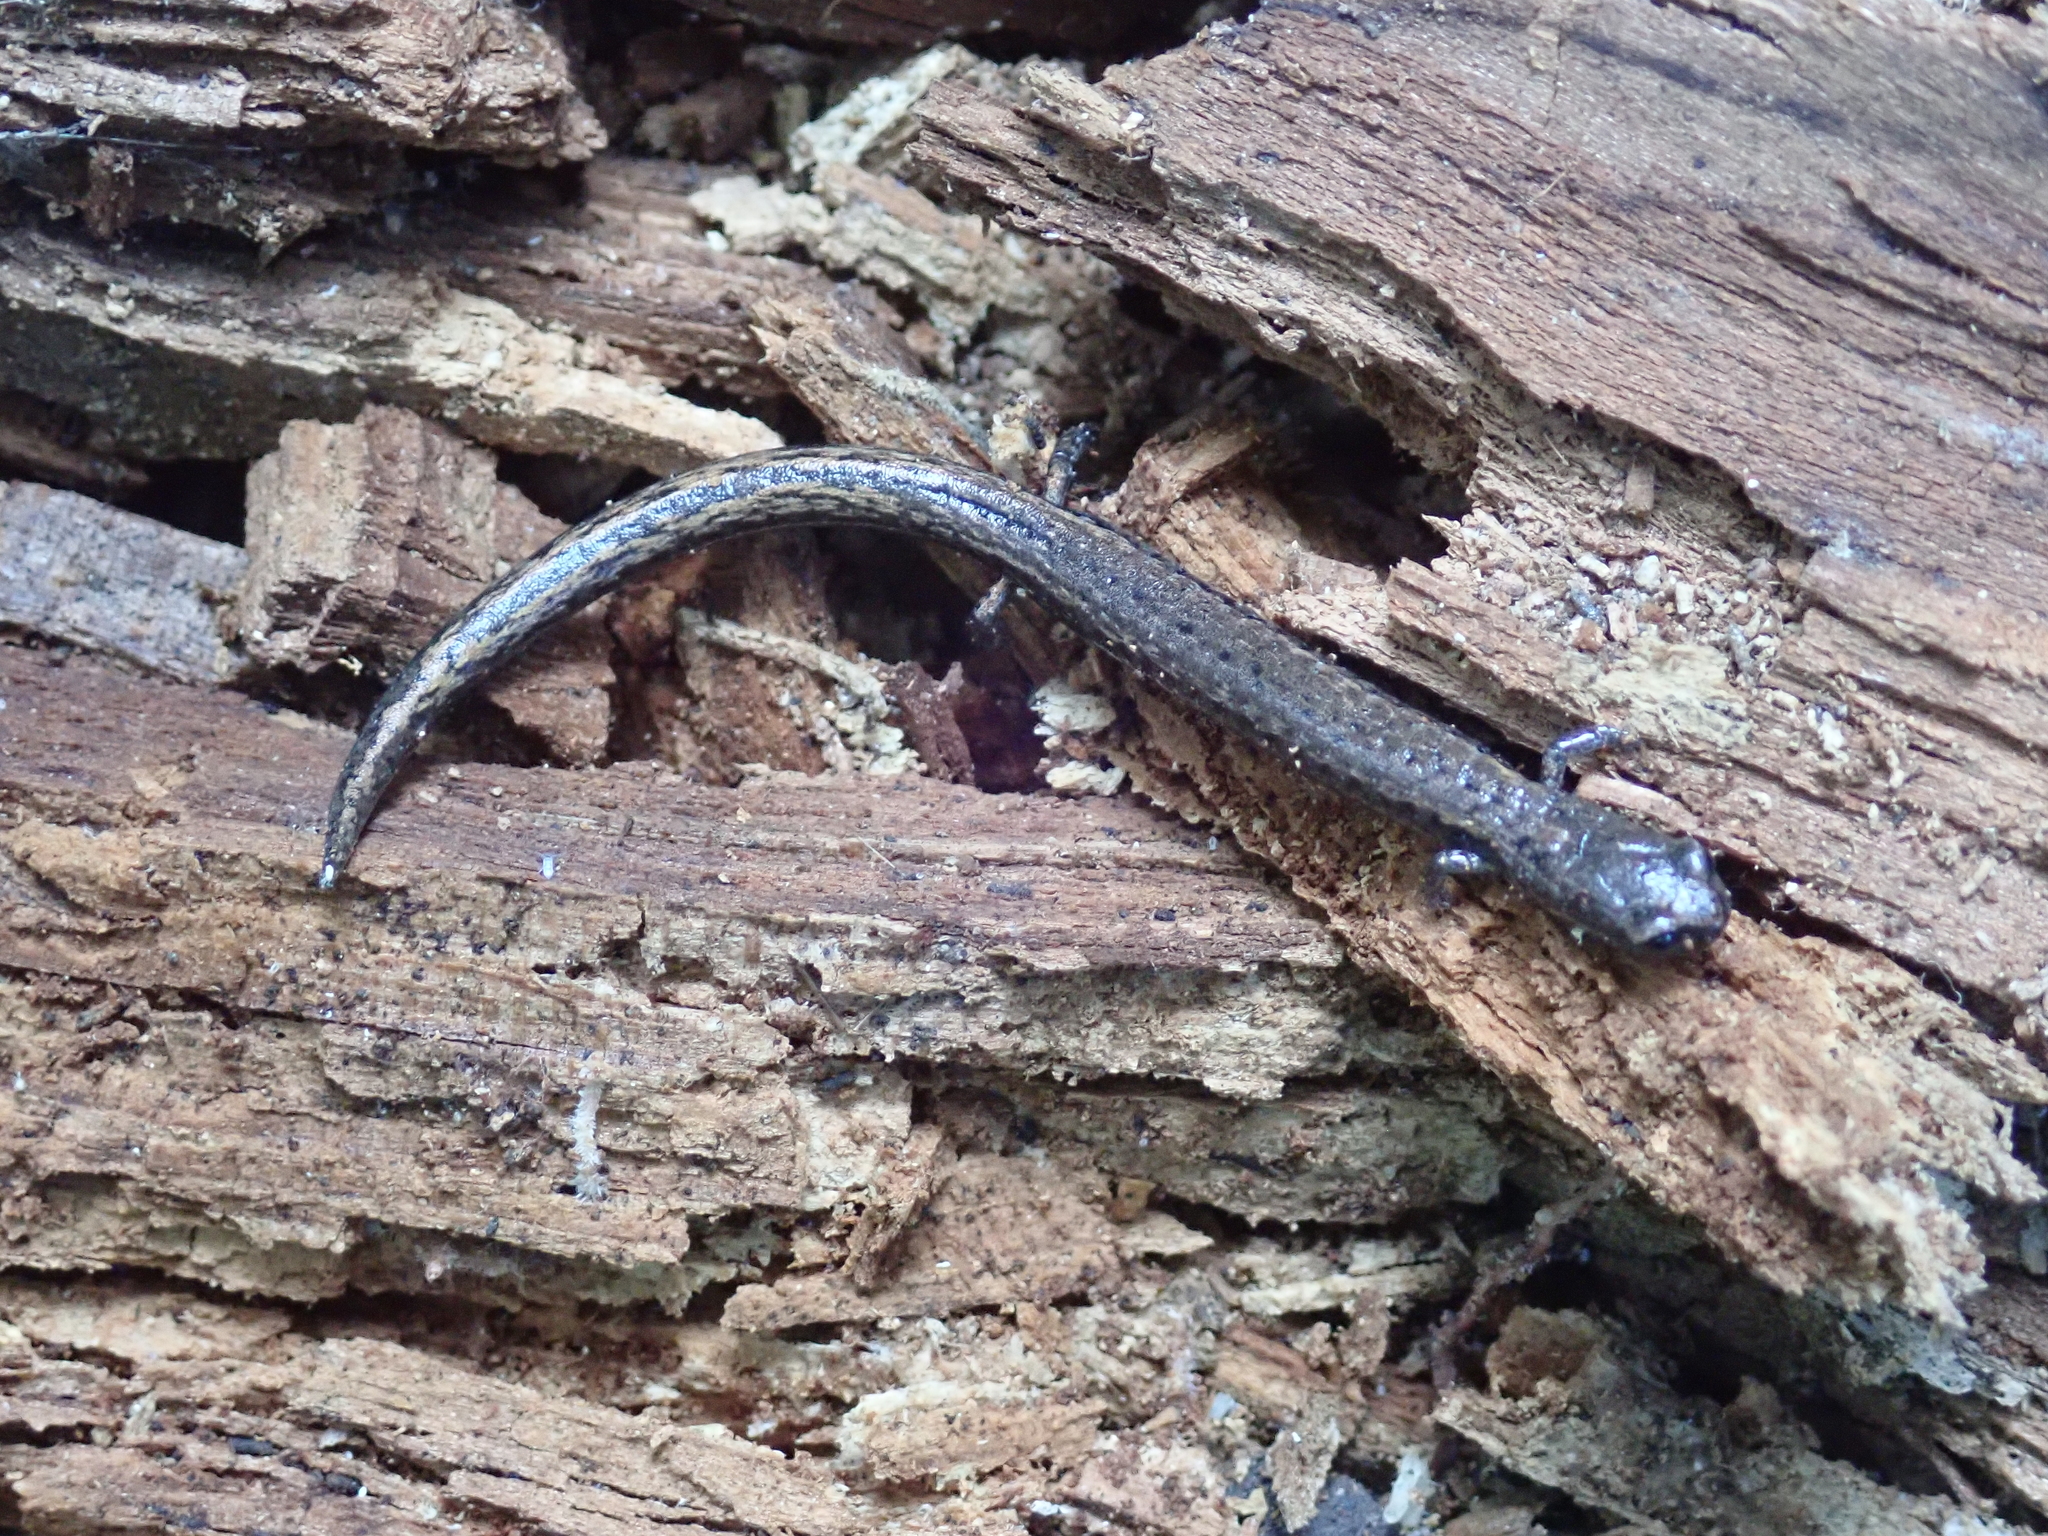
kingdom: Animalia
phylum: Chordata
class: Amphibia
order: Caudata
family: Plethodontidae
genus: Batrachoseps
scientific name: Batrachoseps attenuatus
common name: California slender salamander
